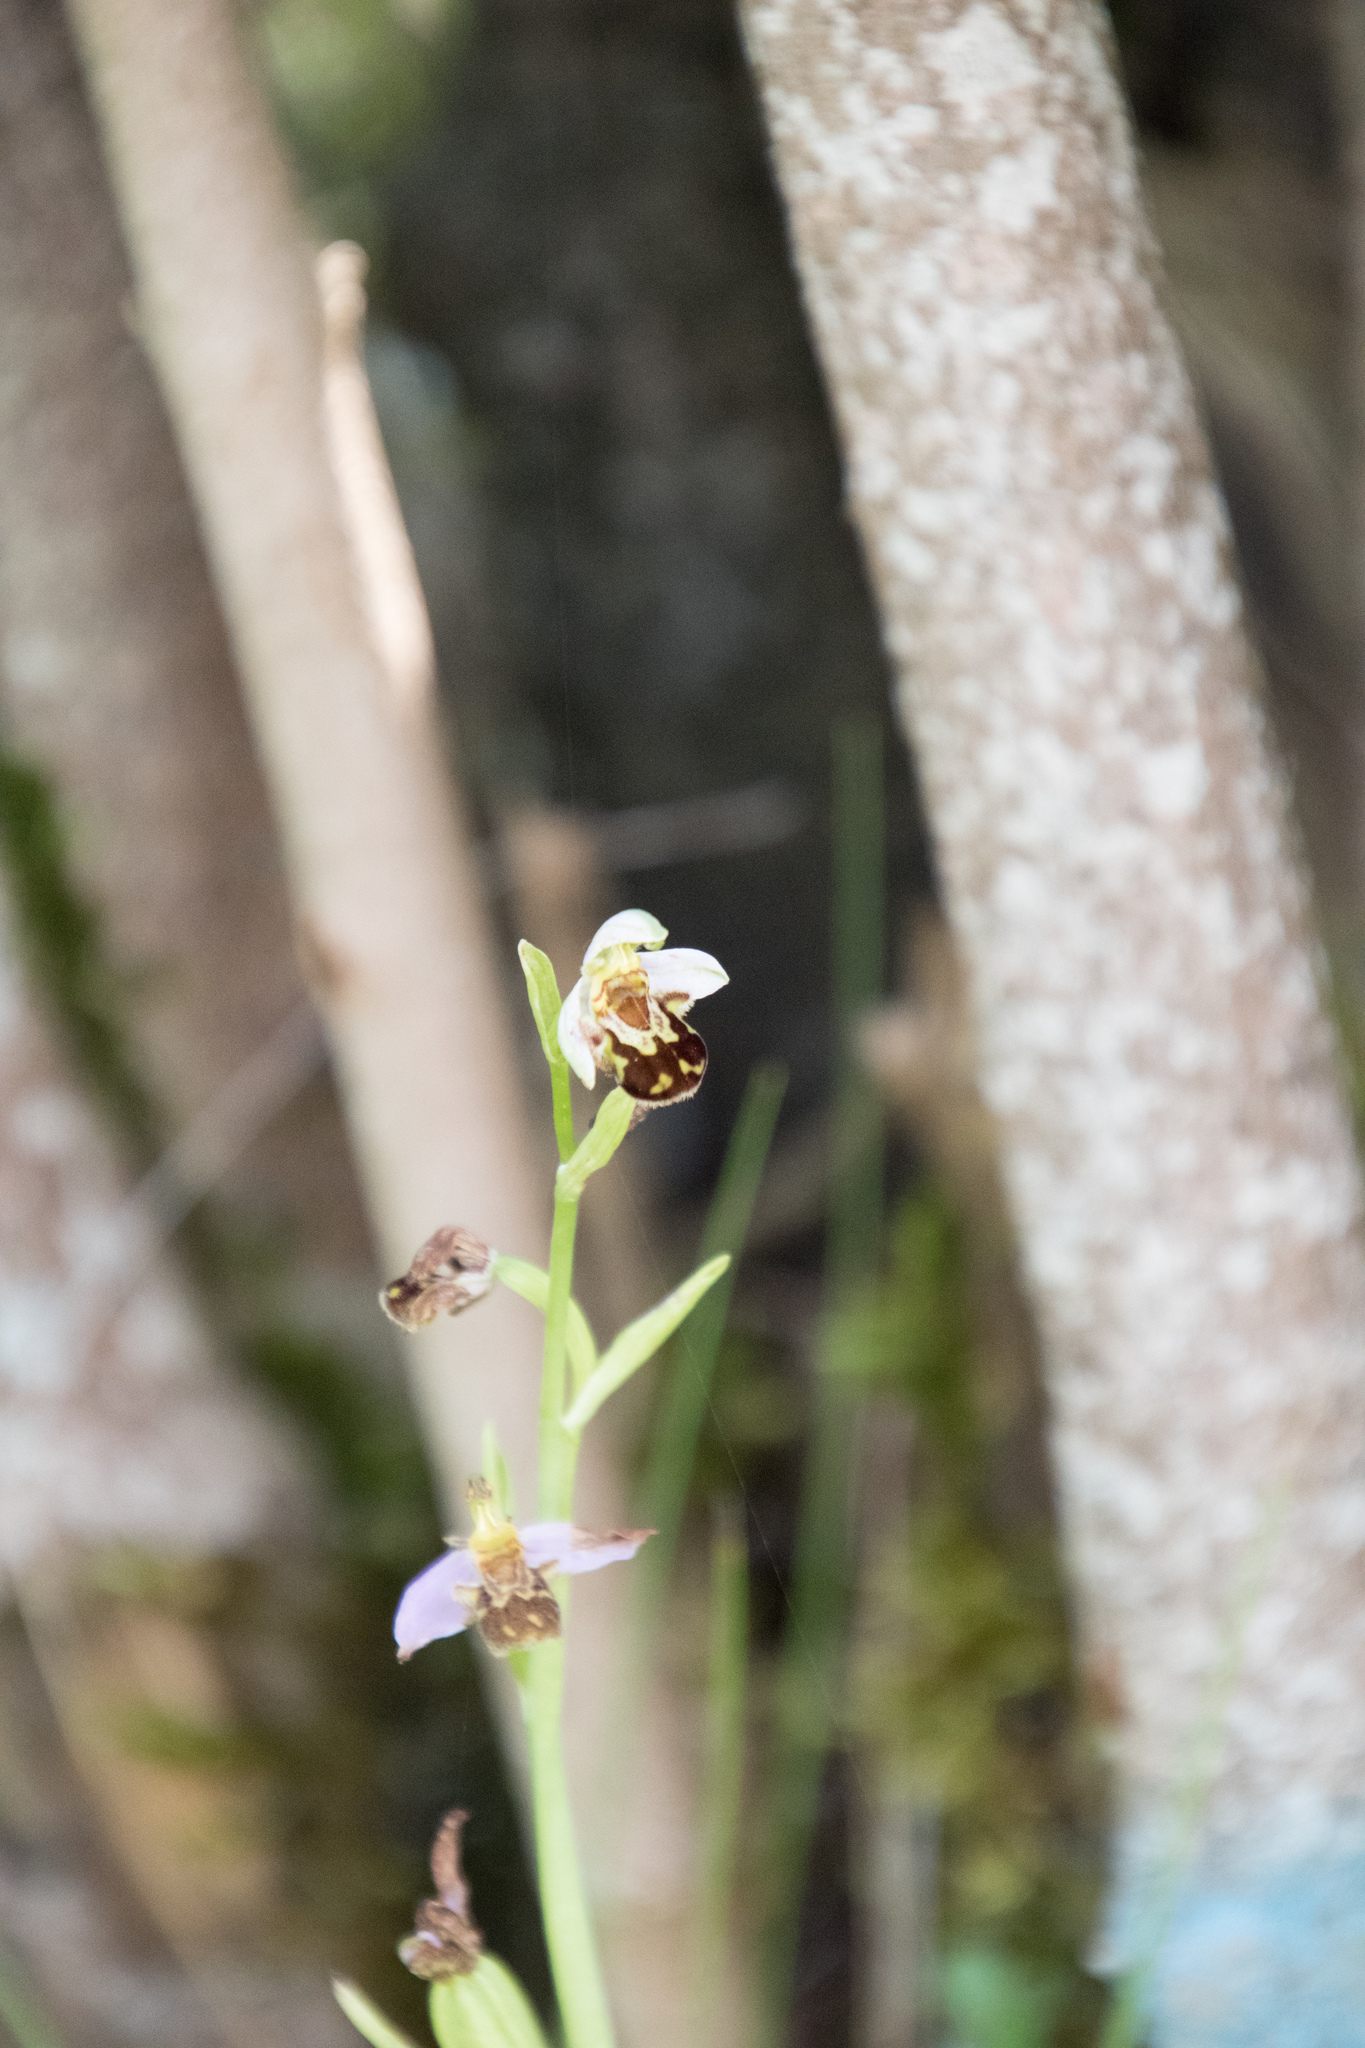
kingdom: Plantae
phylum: Tracheophyta
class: Liliopsida
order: Asparagales
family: Orchidaceae
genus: Ophrys
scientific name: Ophrys apifera
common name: Bee orchid
